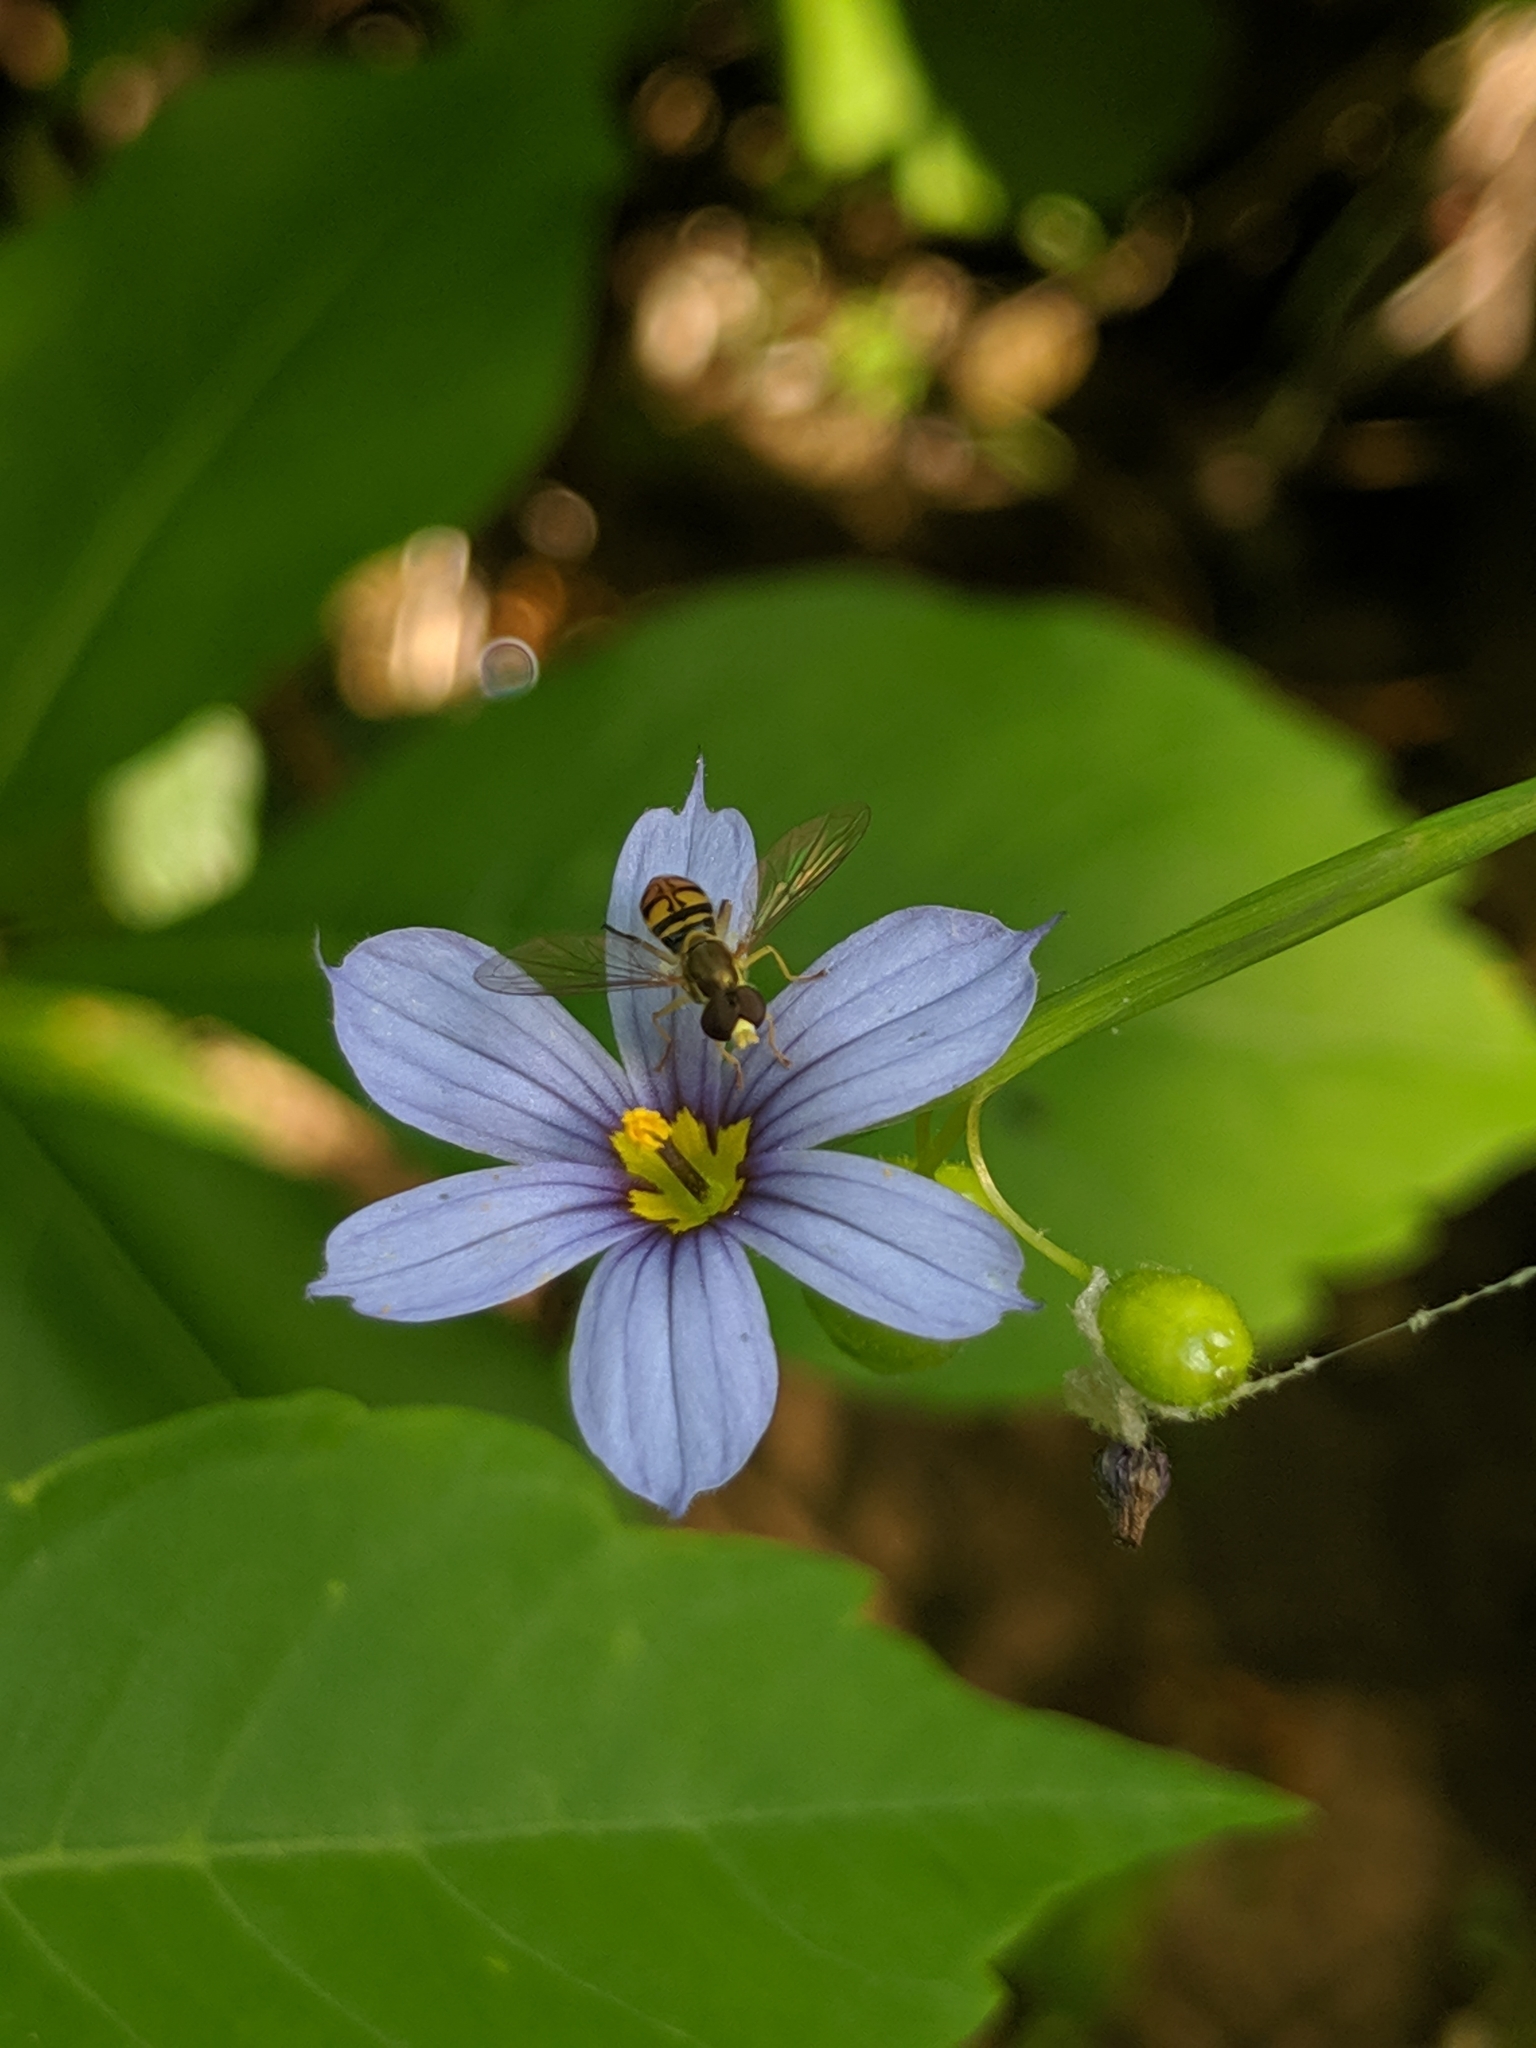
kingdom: Animalia
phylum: Arthropoda
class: Insecta
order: Diptera
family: Syrphidae
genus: Toxomerus
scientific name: Toxomerus marginatus
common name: Syrphid fly
